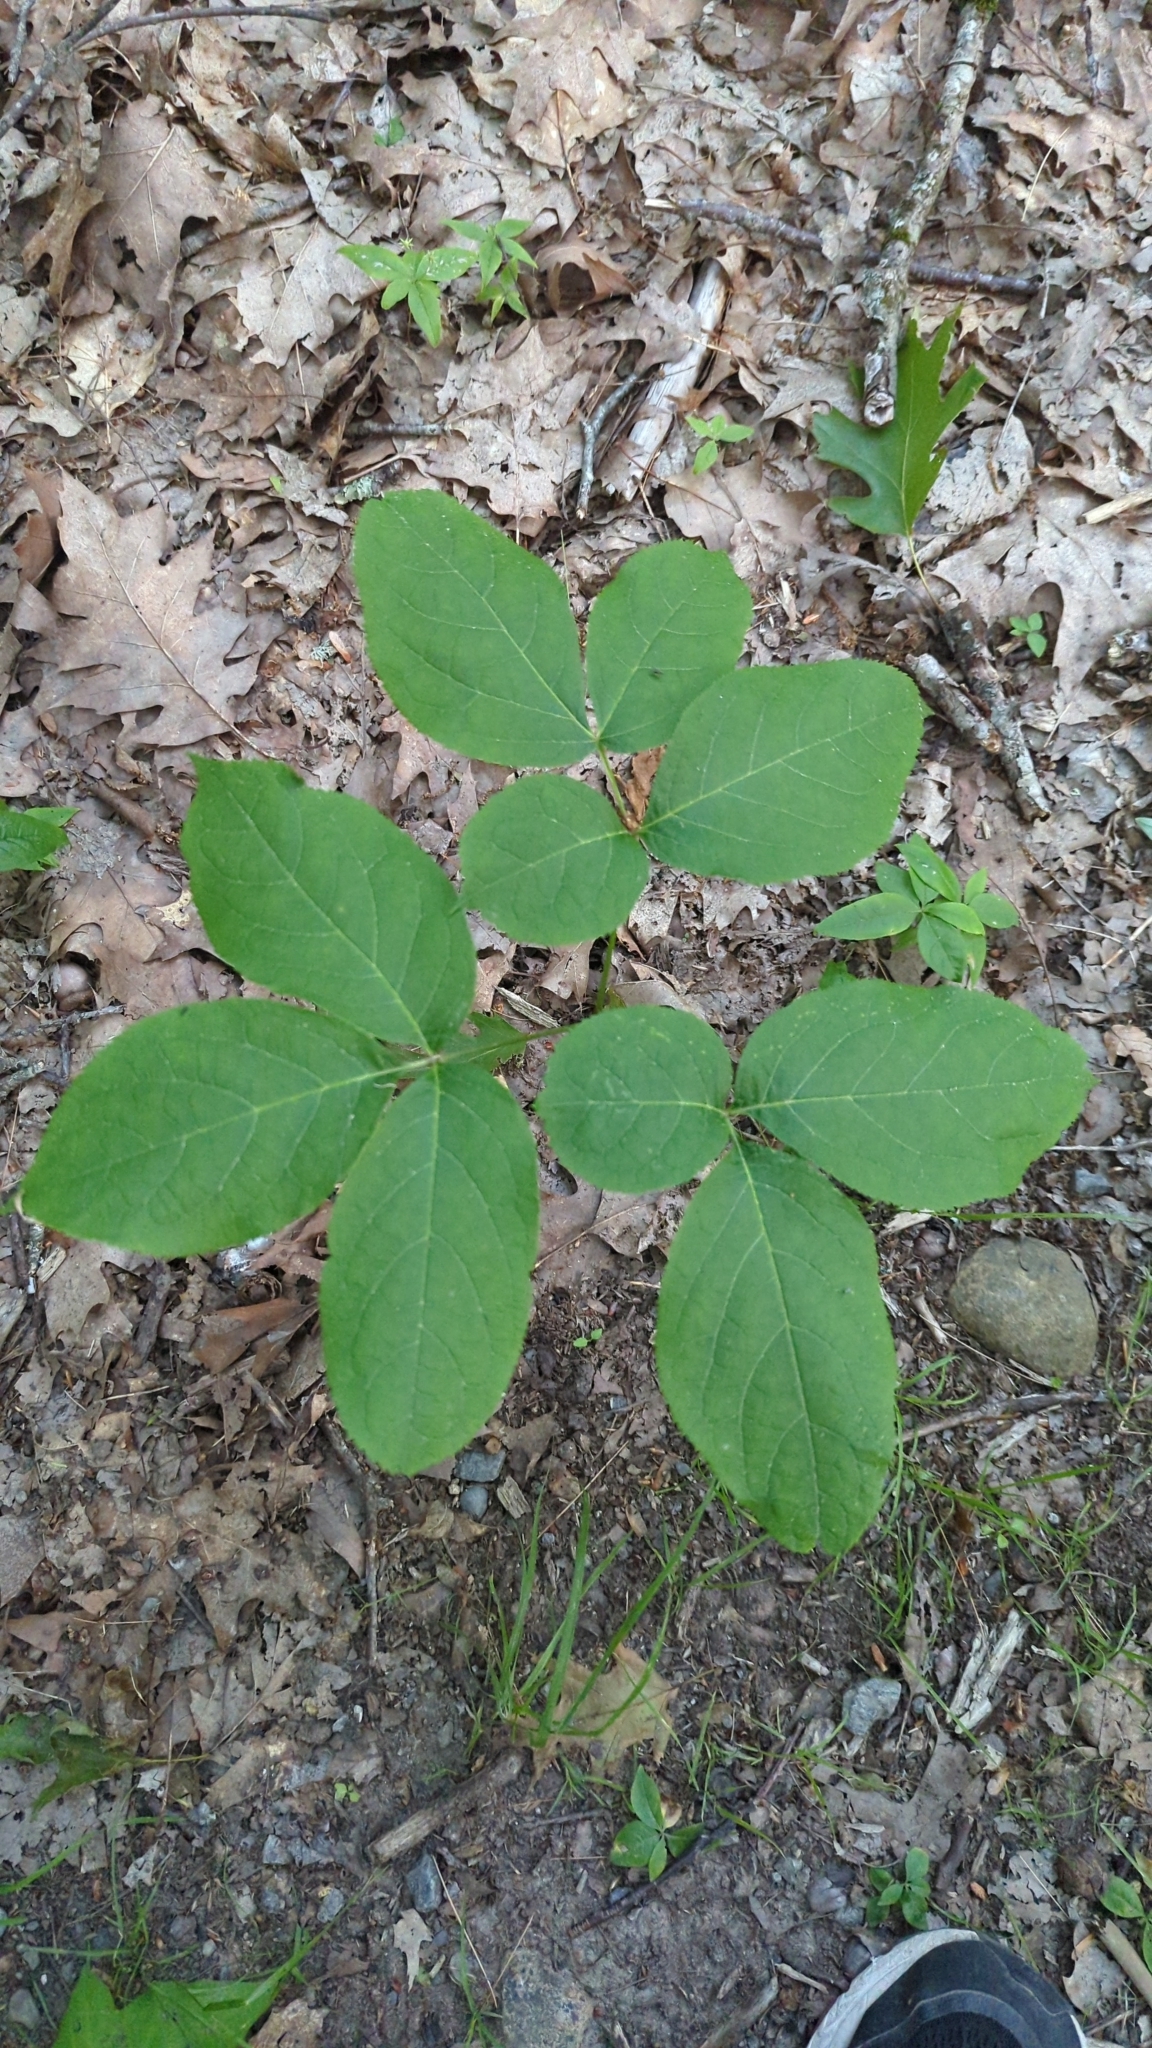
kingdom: Plantae
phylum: Tracheophyta
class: Magnoliopsida
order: Apiales
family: Araliaceae
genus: Aralia
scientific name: Aralia nudicaulis
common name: Wild sarsaparilla
